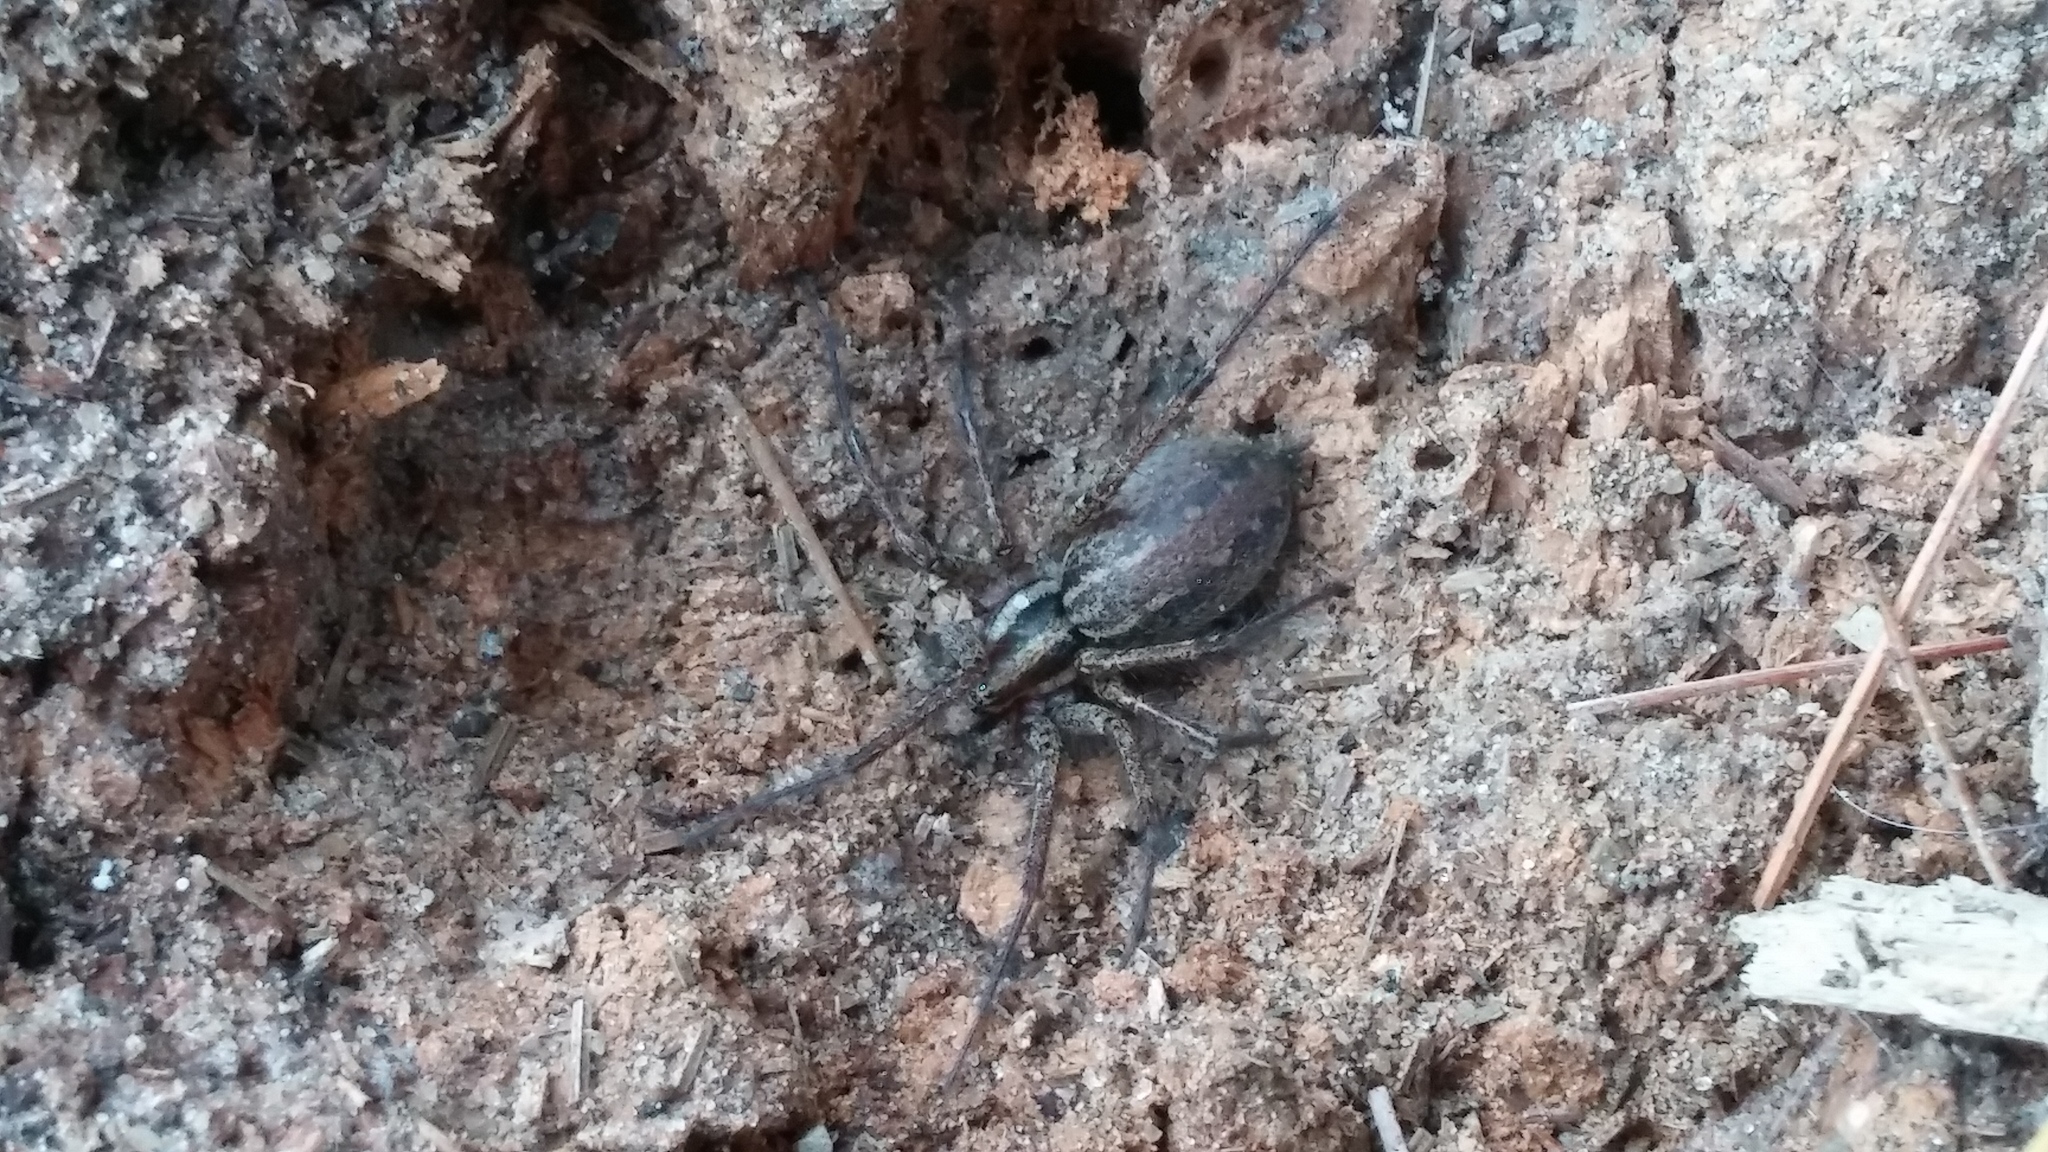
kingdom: Animalia
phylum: Arthropoda
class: Arachnida
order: Araneae
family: Agelenidae
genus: Agelenopsis
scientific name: Agelenopsis
